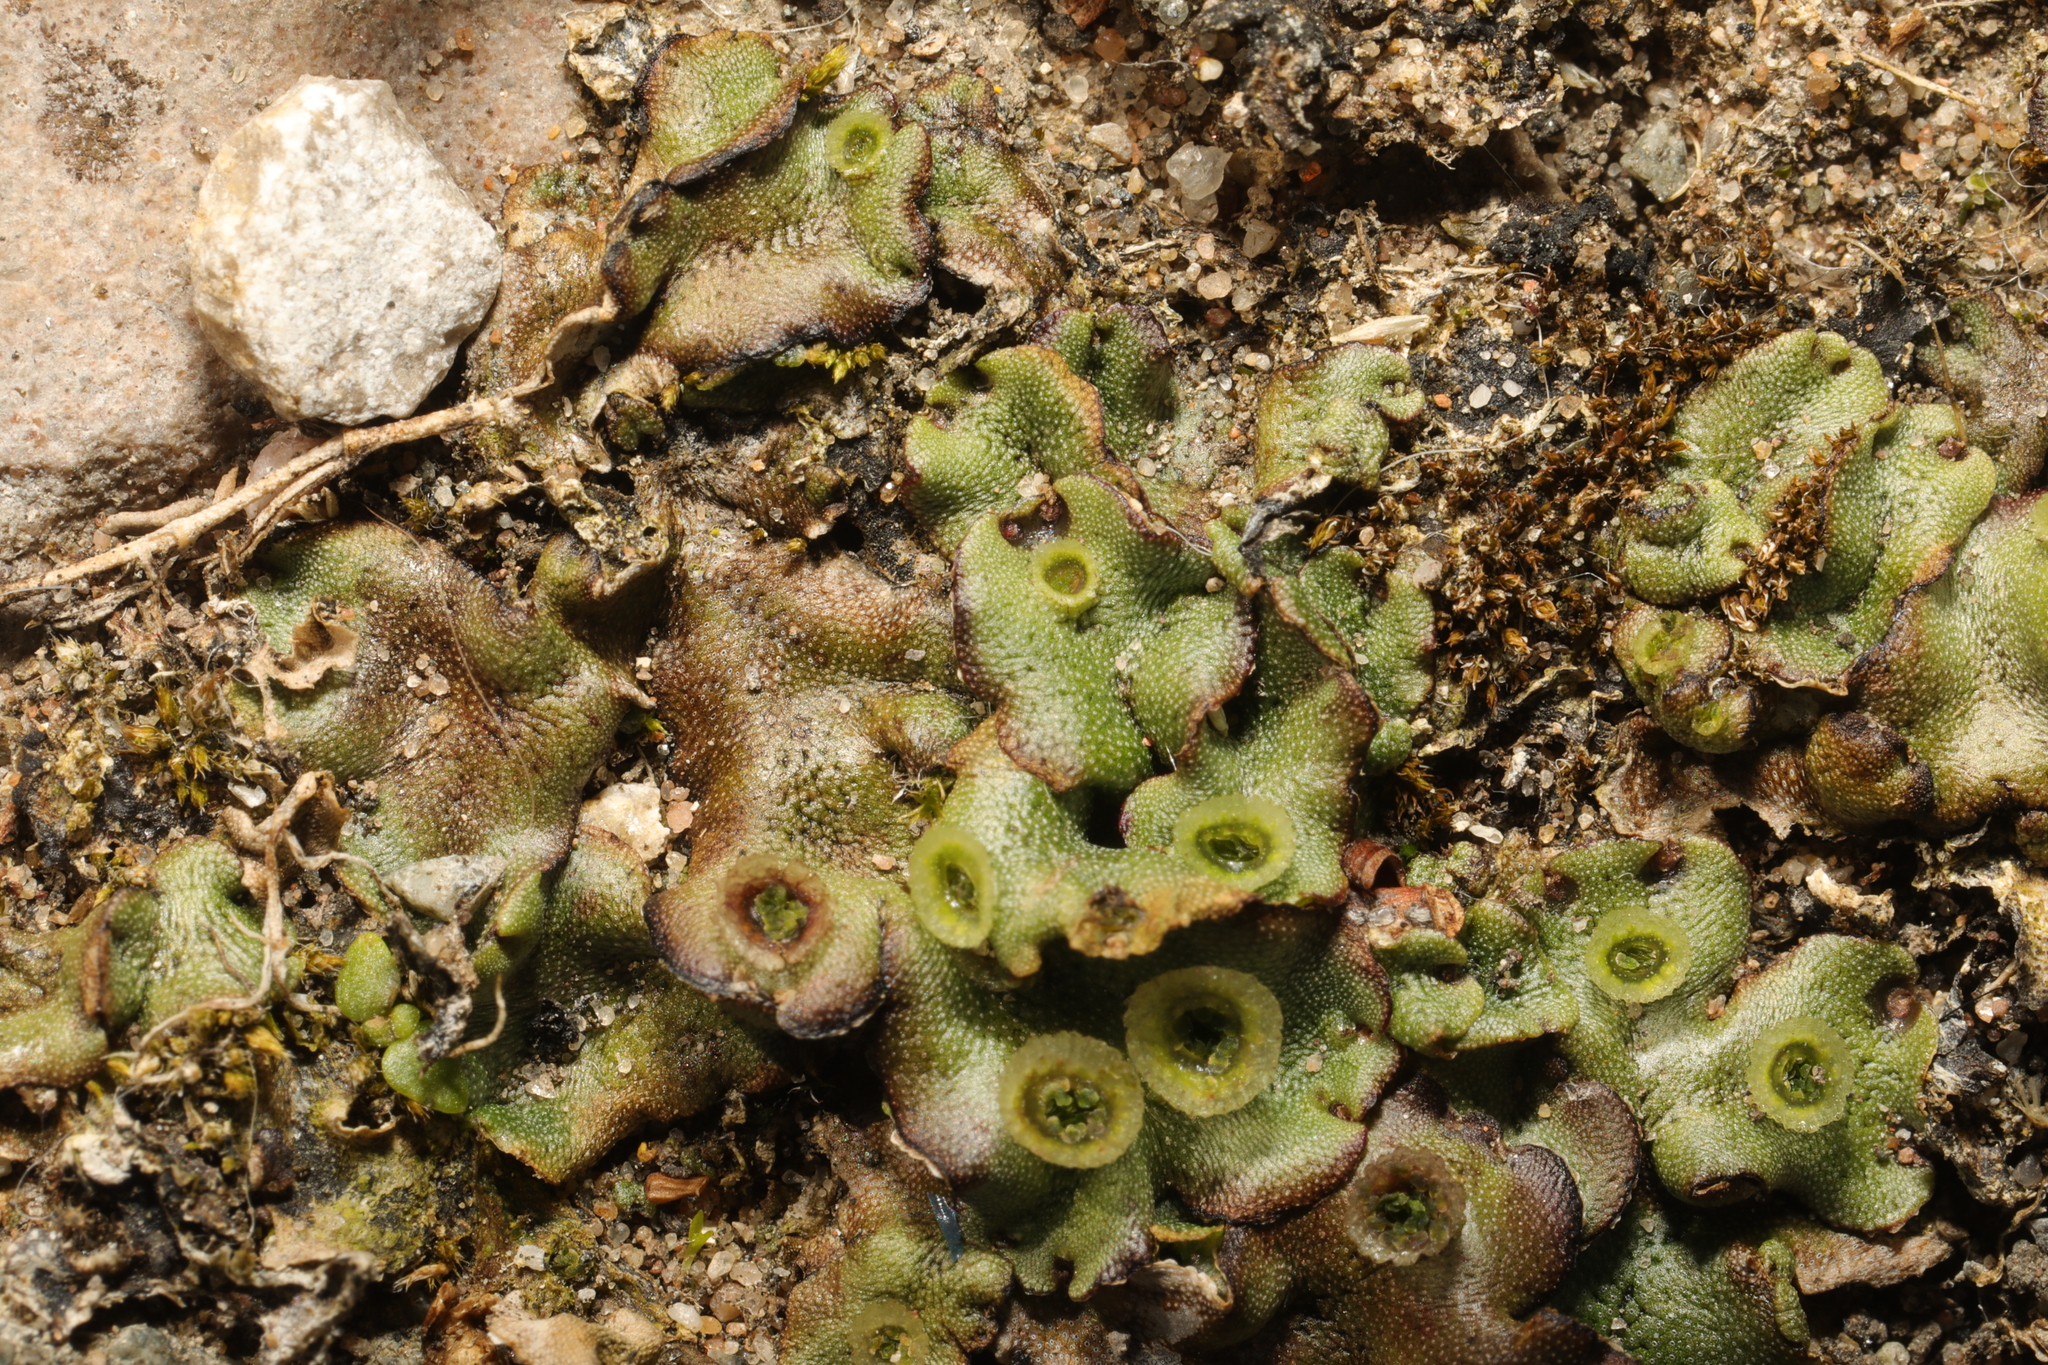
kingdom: Plantae
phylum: Marchantiophyta
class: Marchantiopsida
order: Marchantiales
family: Marchantiaceae
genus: Marchantia
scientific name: Marchantia polymorpha
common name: Common liverwort
